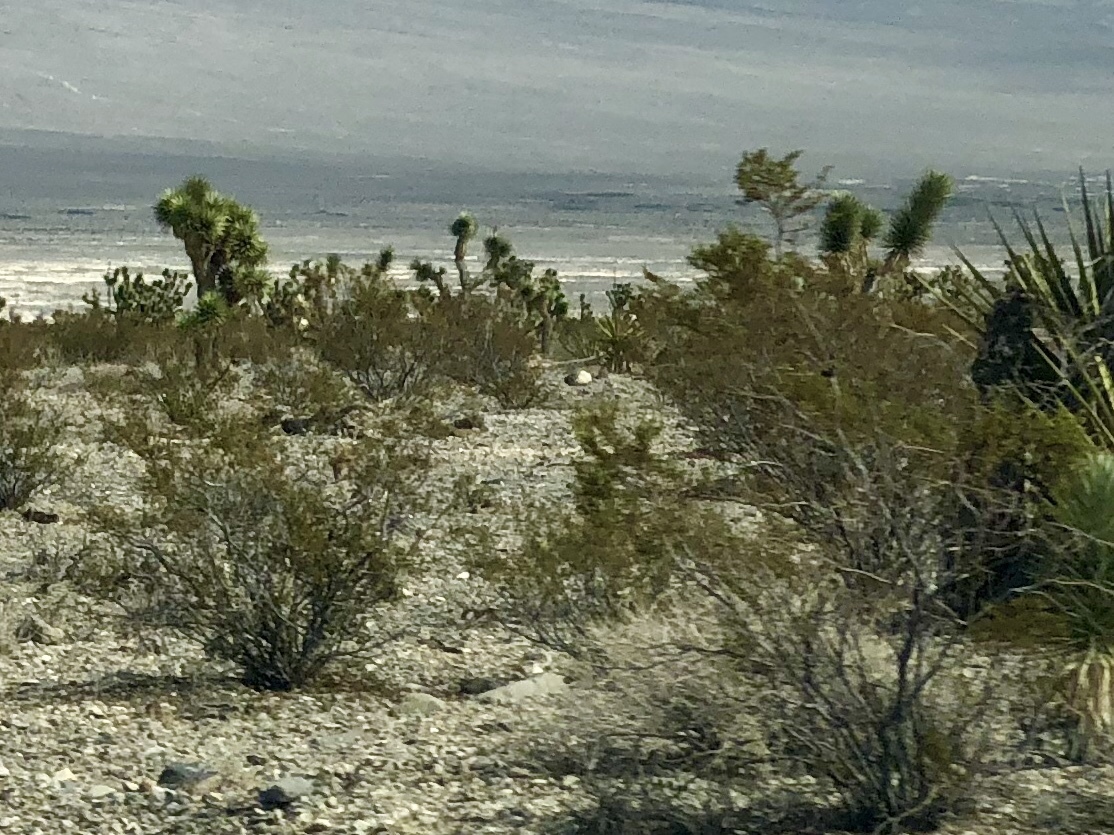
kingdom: Plantae
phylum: Tracheophyta
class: Magnoliopsida
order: Zygophyllales
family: Zygophyllaceae
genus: Larrea
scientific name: Larrea tridentata
